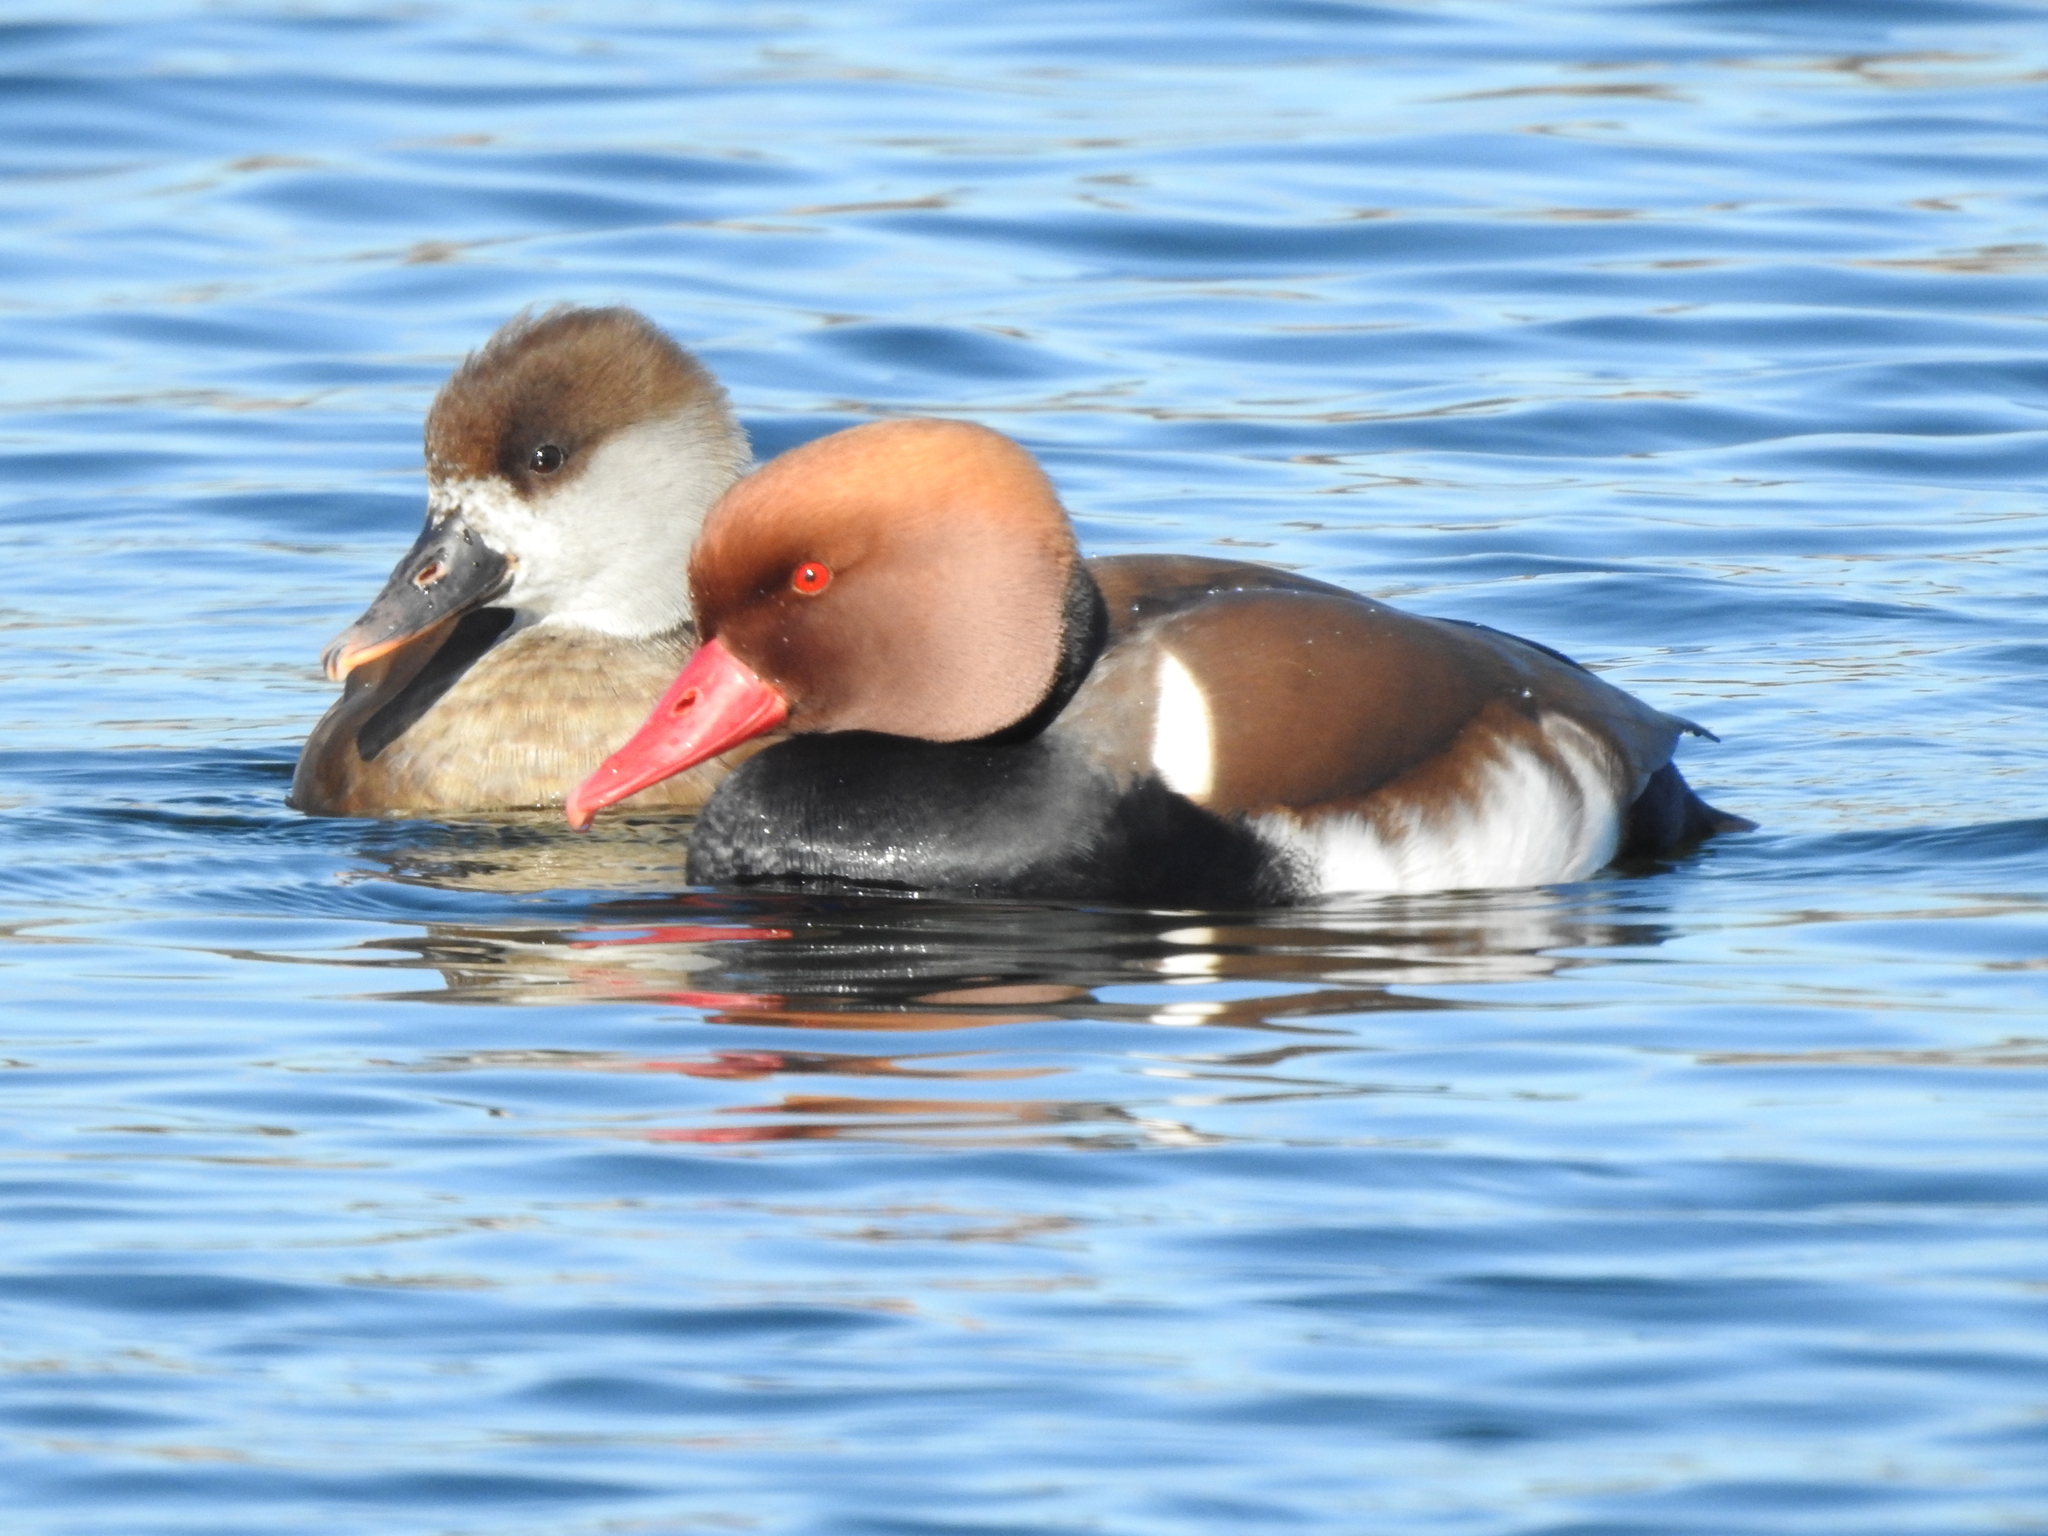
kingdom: Animalia
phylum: Chordata
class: Aves
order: Anseriformes
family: Anatidae
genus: Netta
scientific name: Netta rufina
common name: Red-crested pochard
